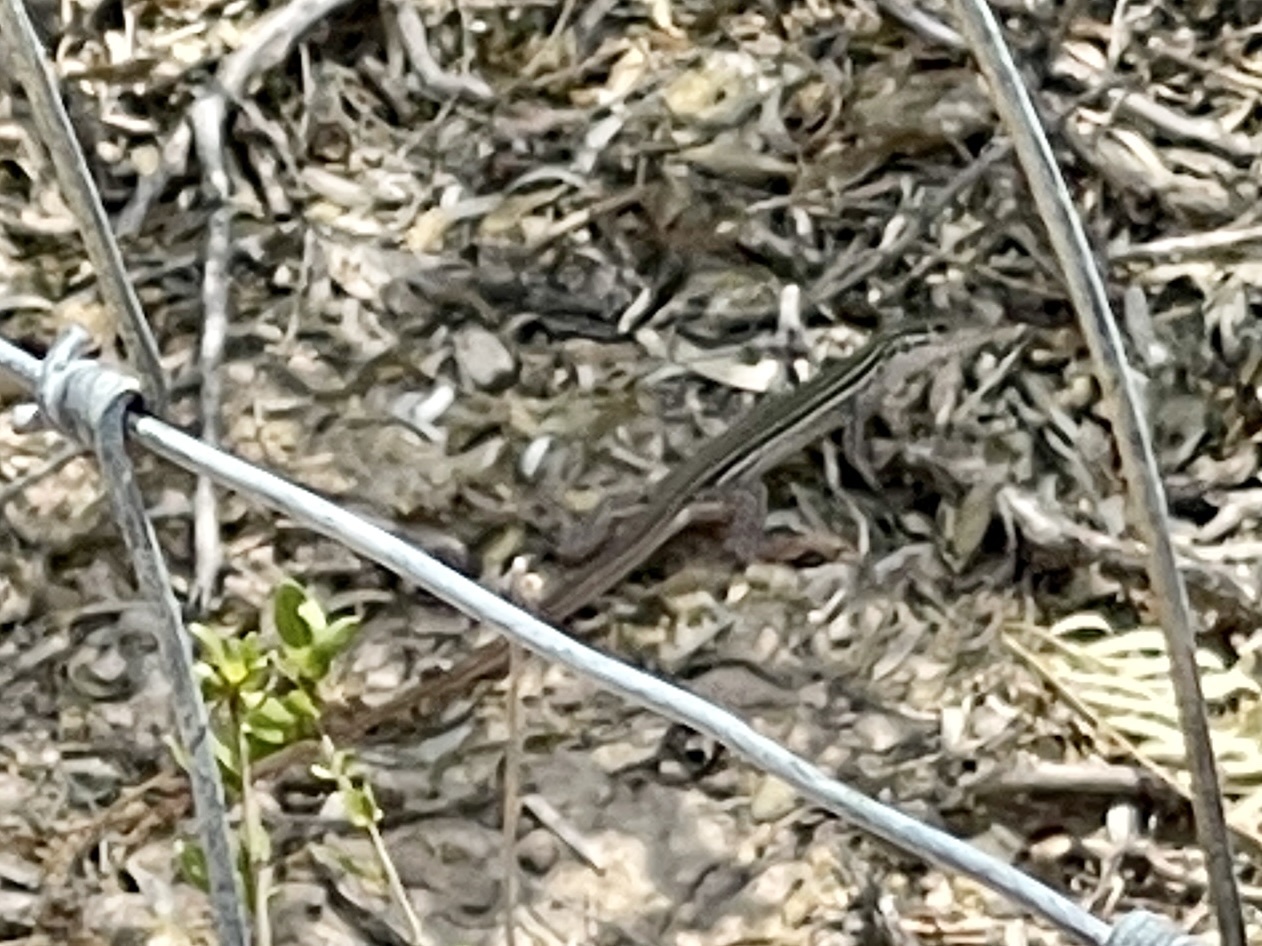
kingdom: Animalia
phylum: Chordata
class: Squamata
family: Teiidae
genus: Aspidoscelis
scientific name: Aspidoscelis gularis
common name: Eastern spotted whiptail
